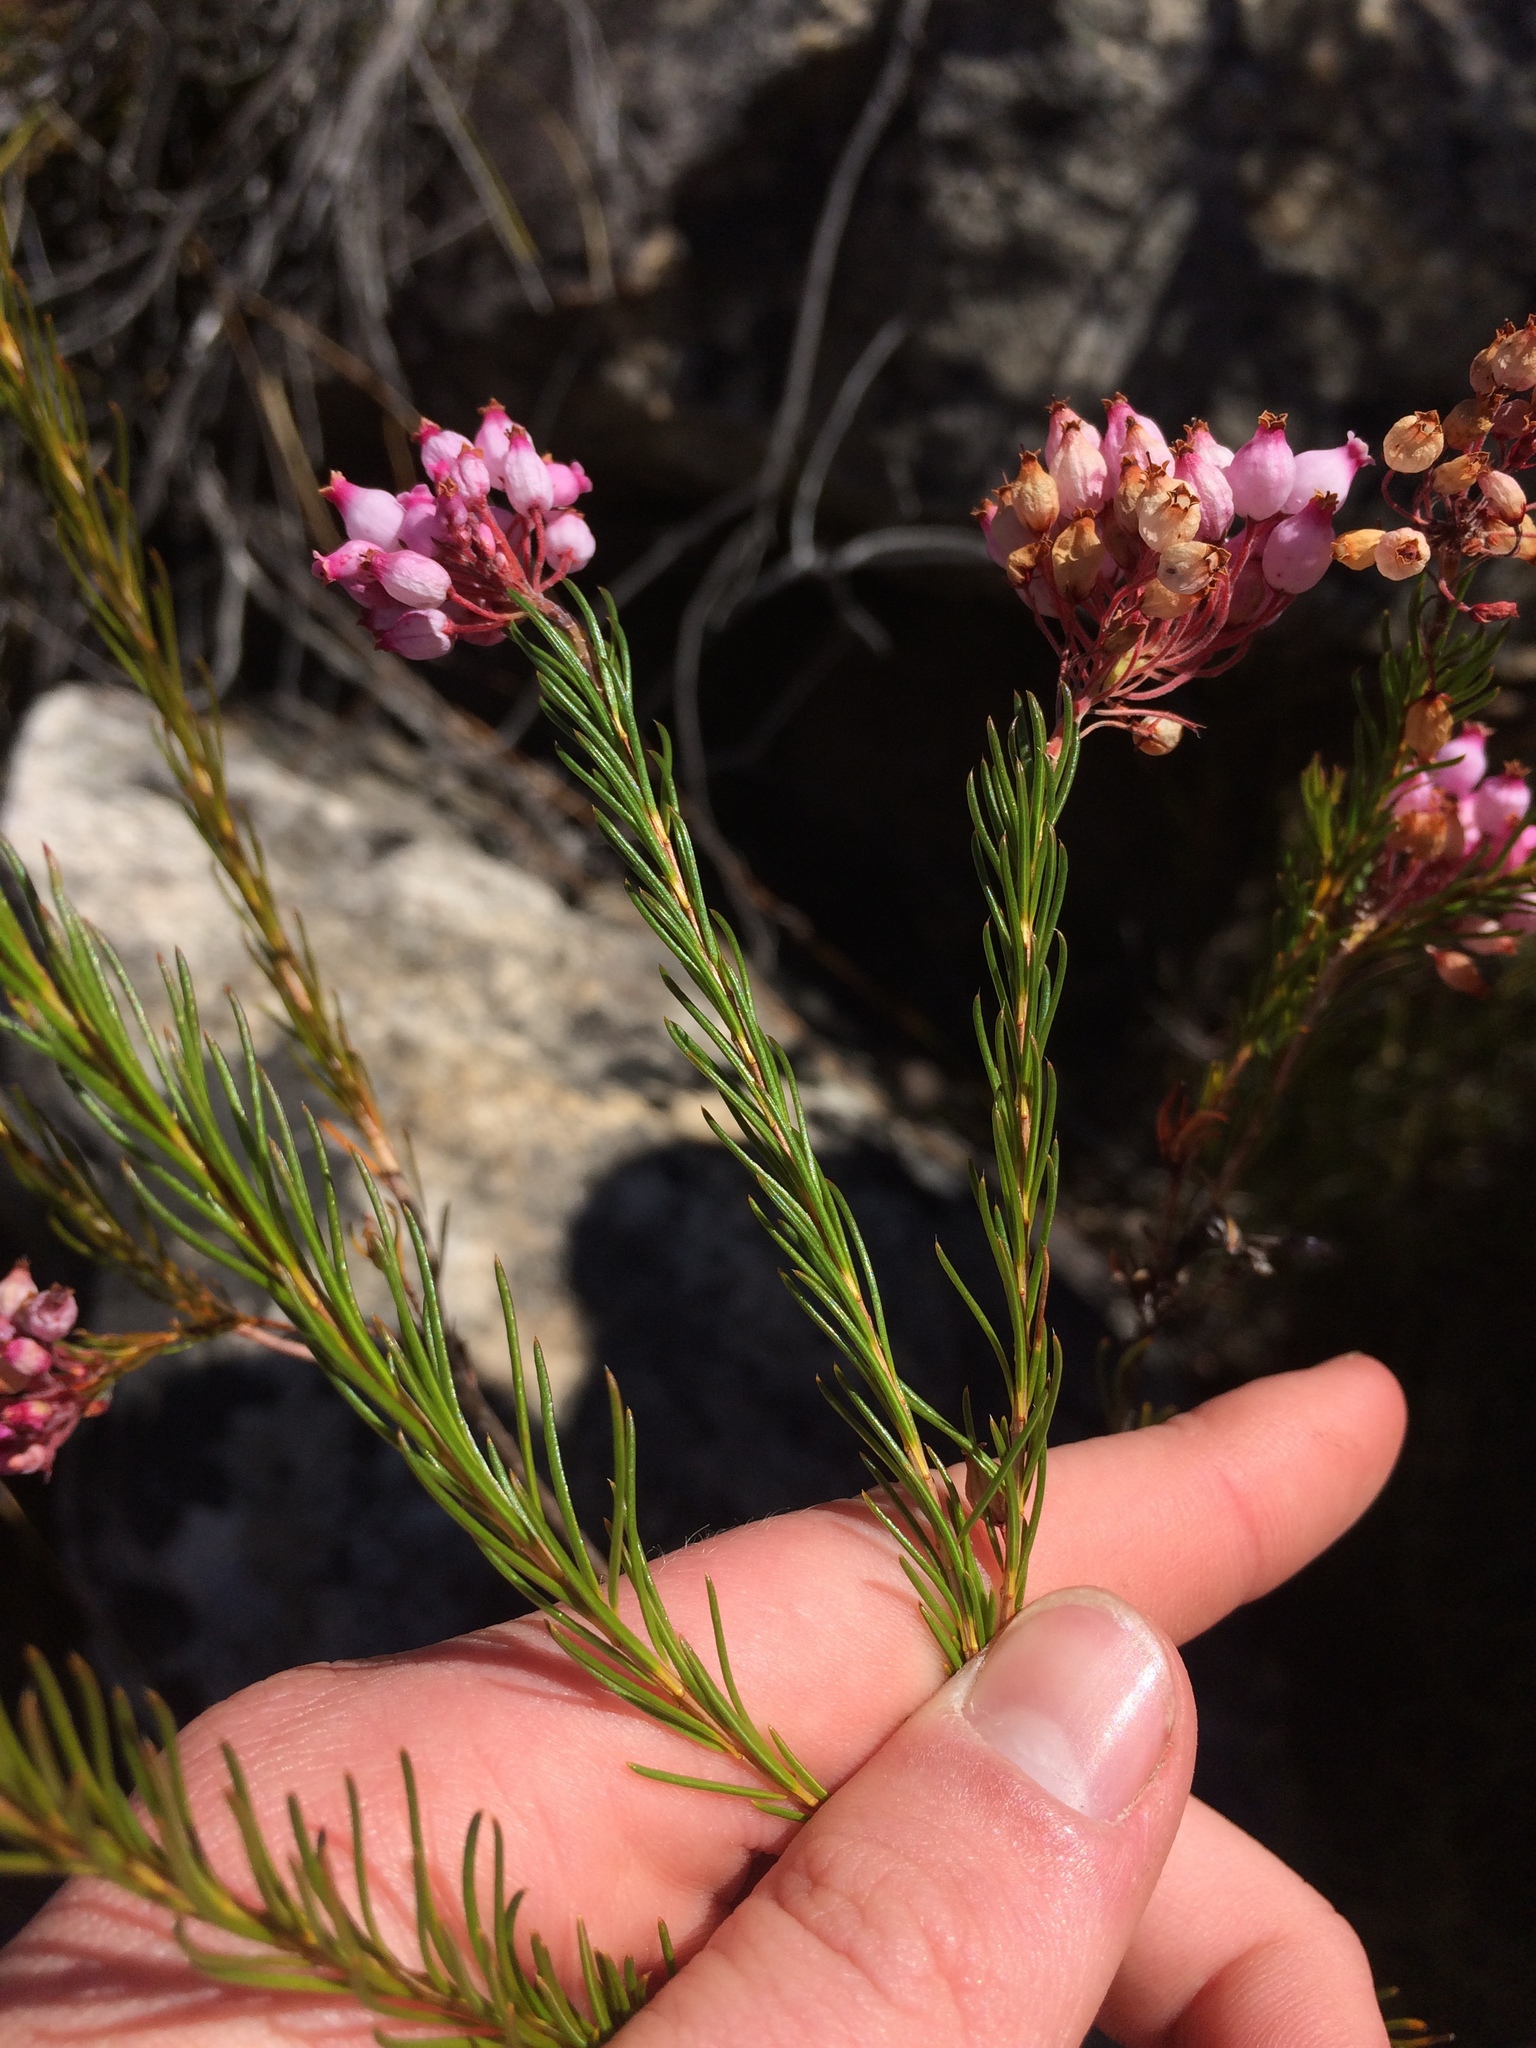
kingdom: Plantae
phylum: Tracheophyta
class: Magnoliopsida
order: Ericales
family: Ericaceae
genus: Erica
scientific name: Erica inflata
